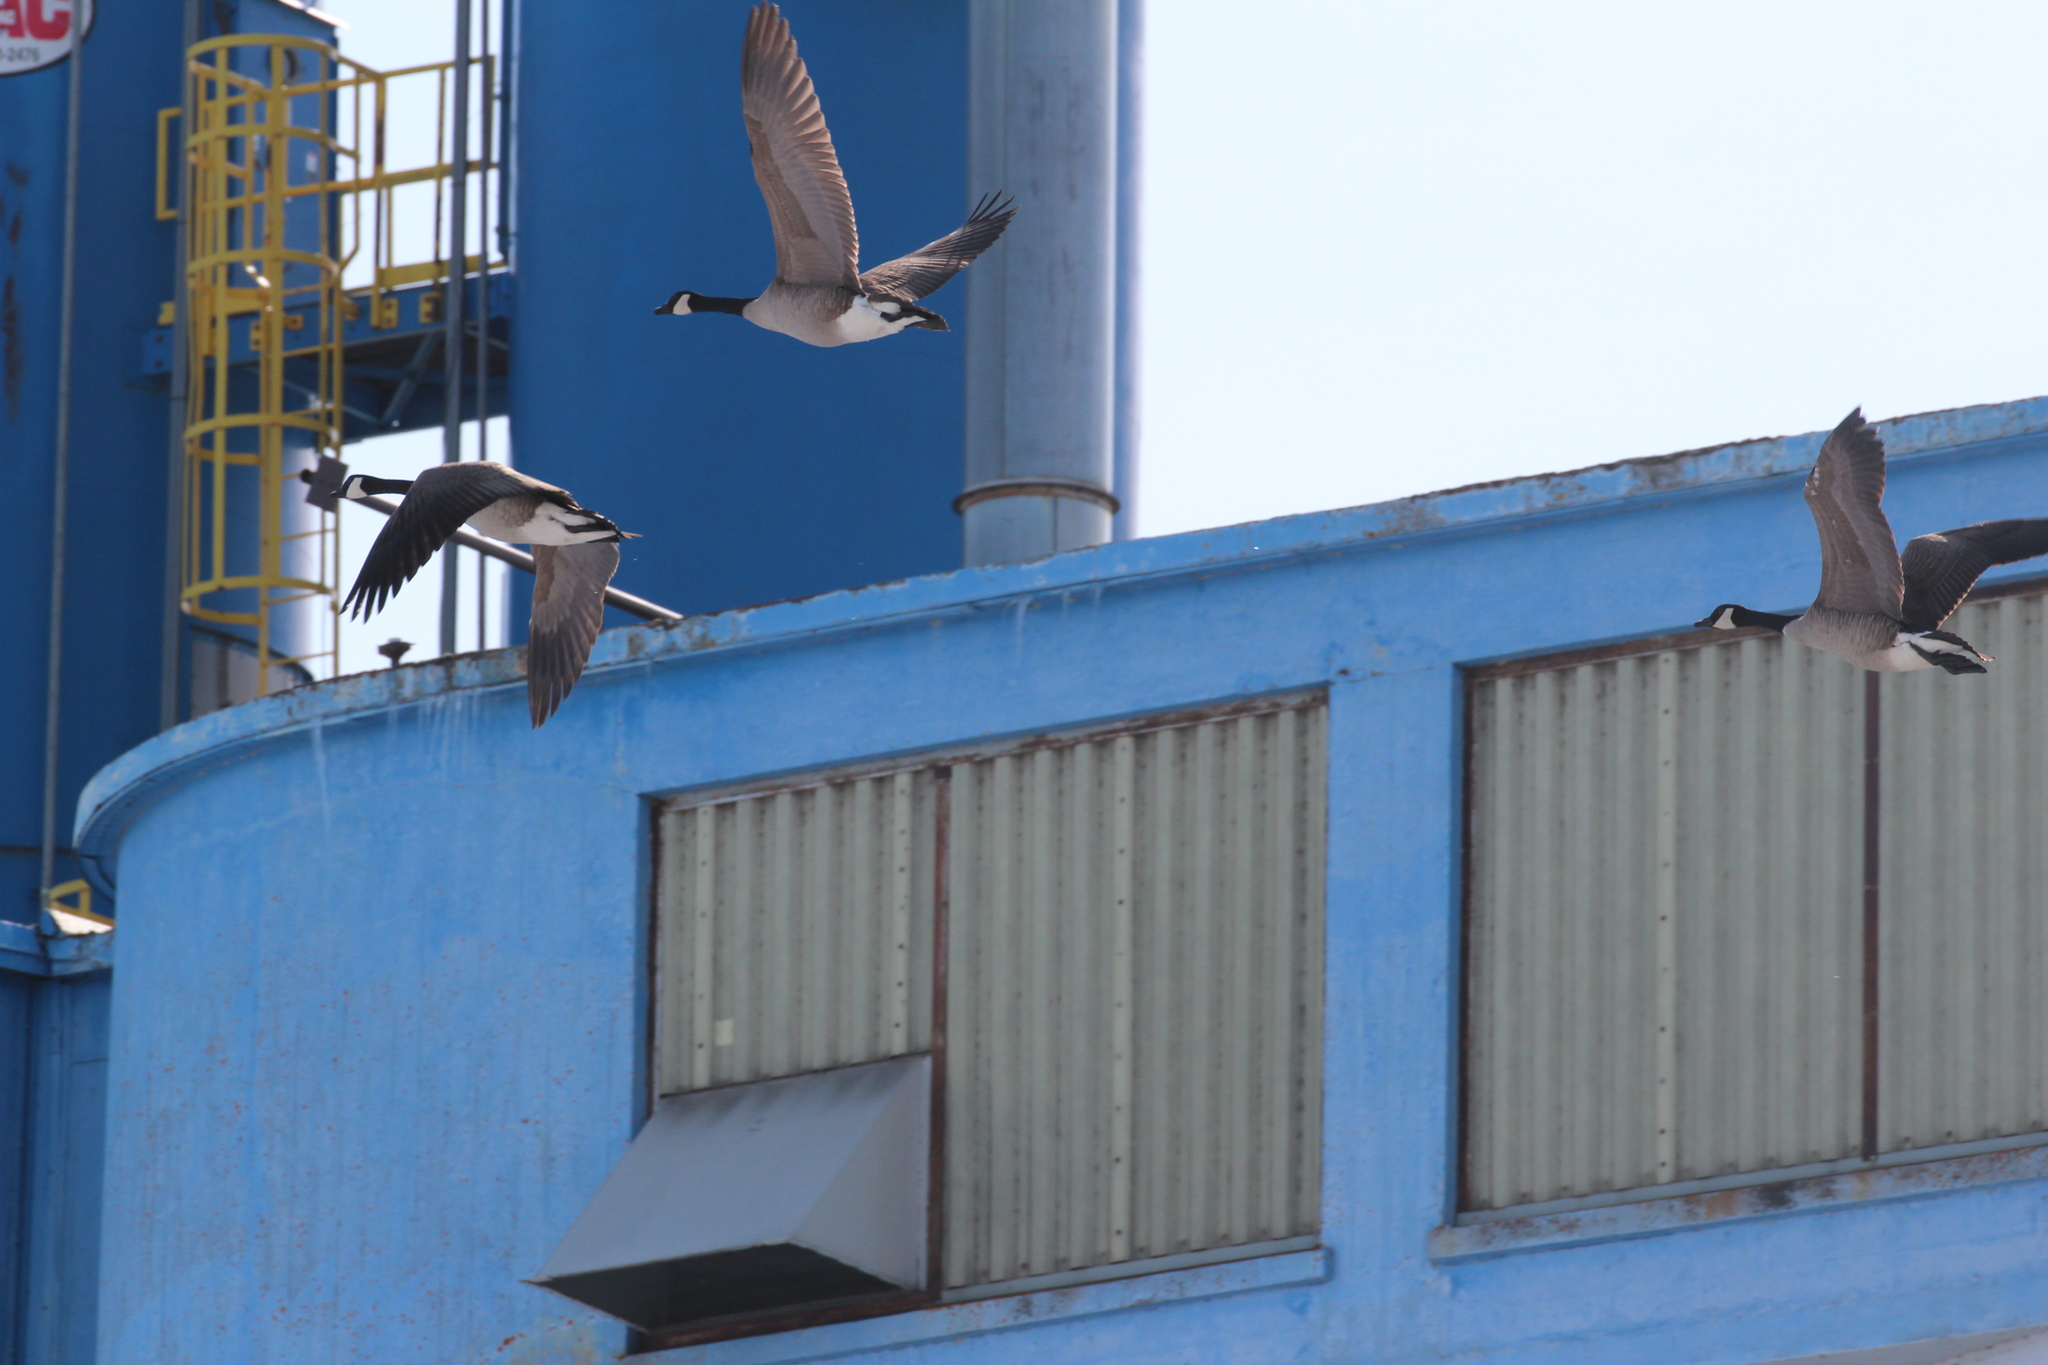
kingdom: Animalia
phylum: Chordata
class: Aves
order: Anseriformes
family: Anatidae
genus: Branta
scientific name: Branta canadensis
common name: Canada goose
